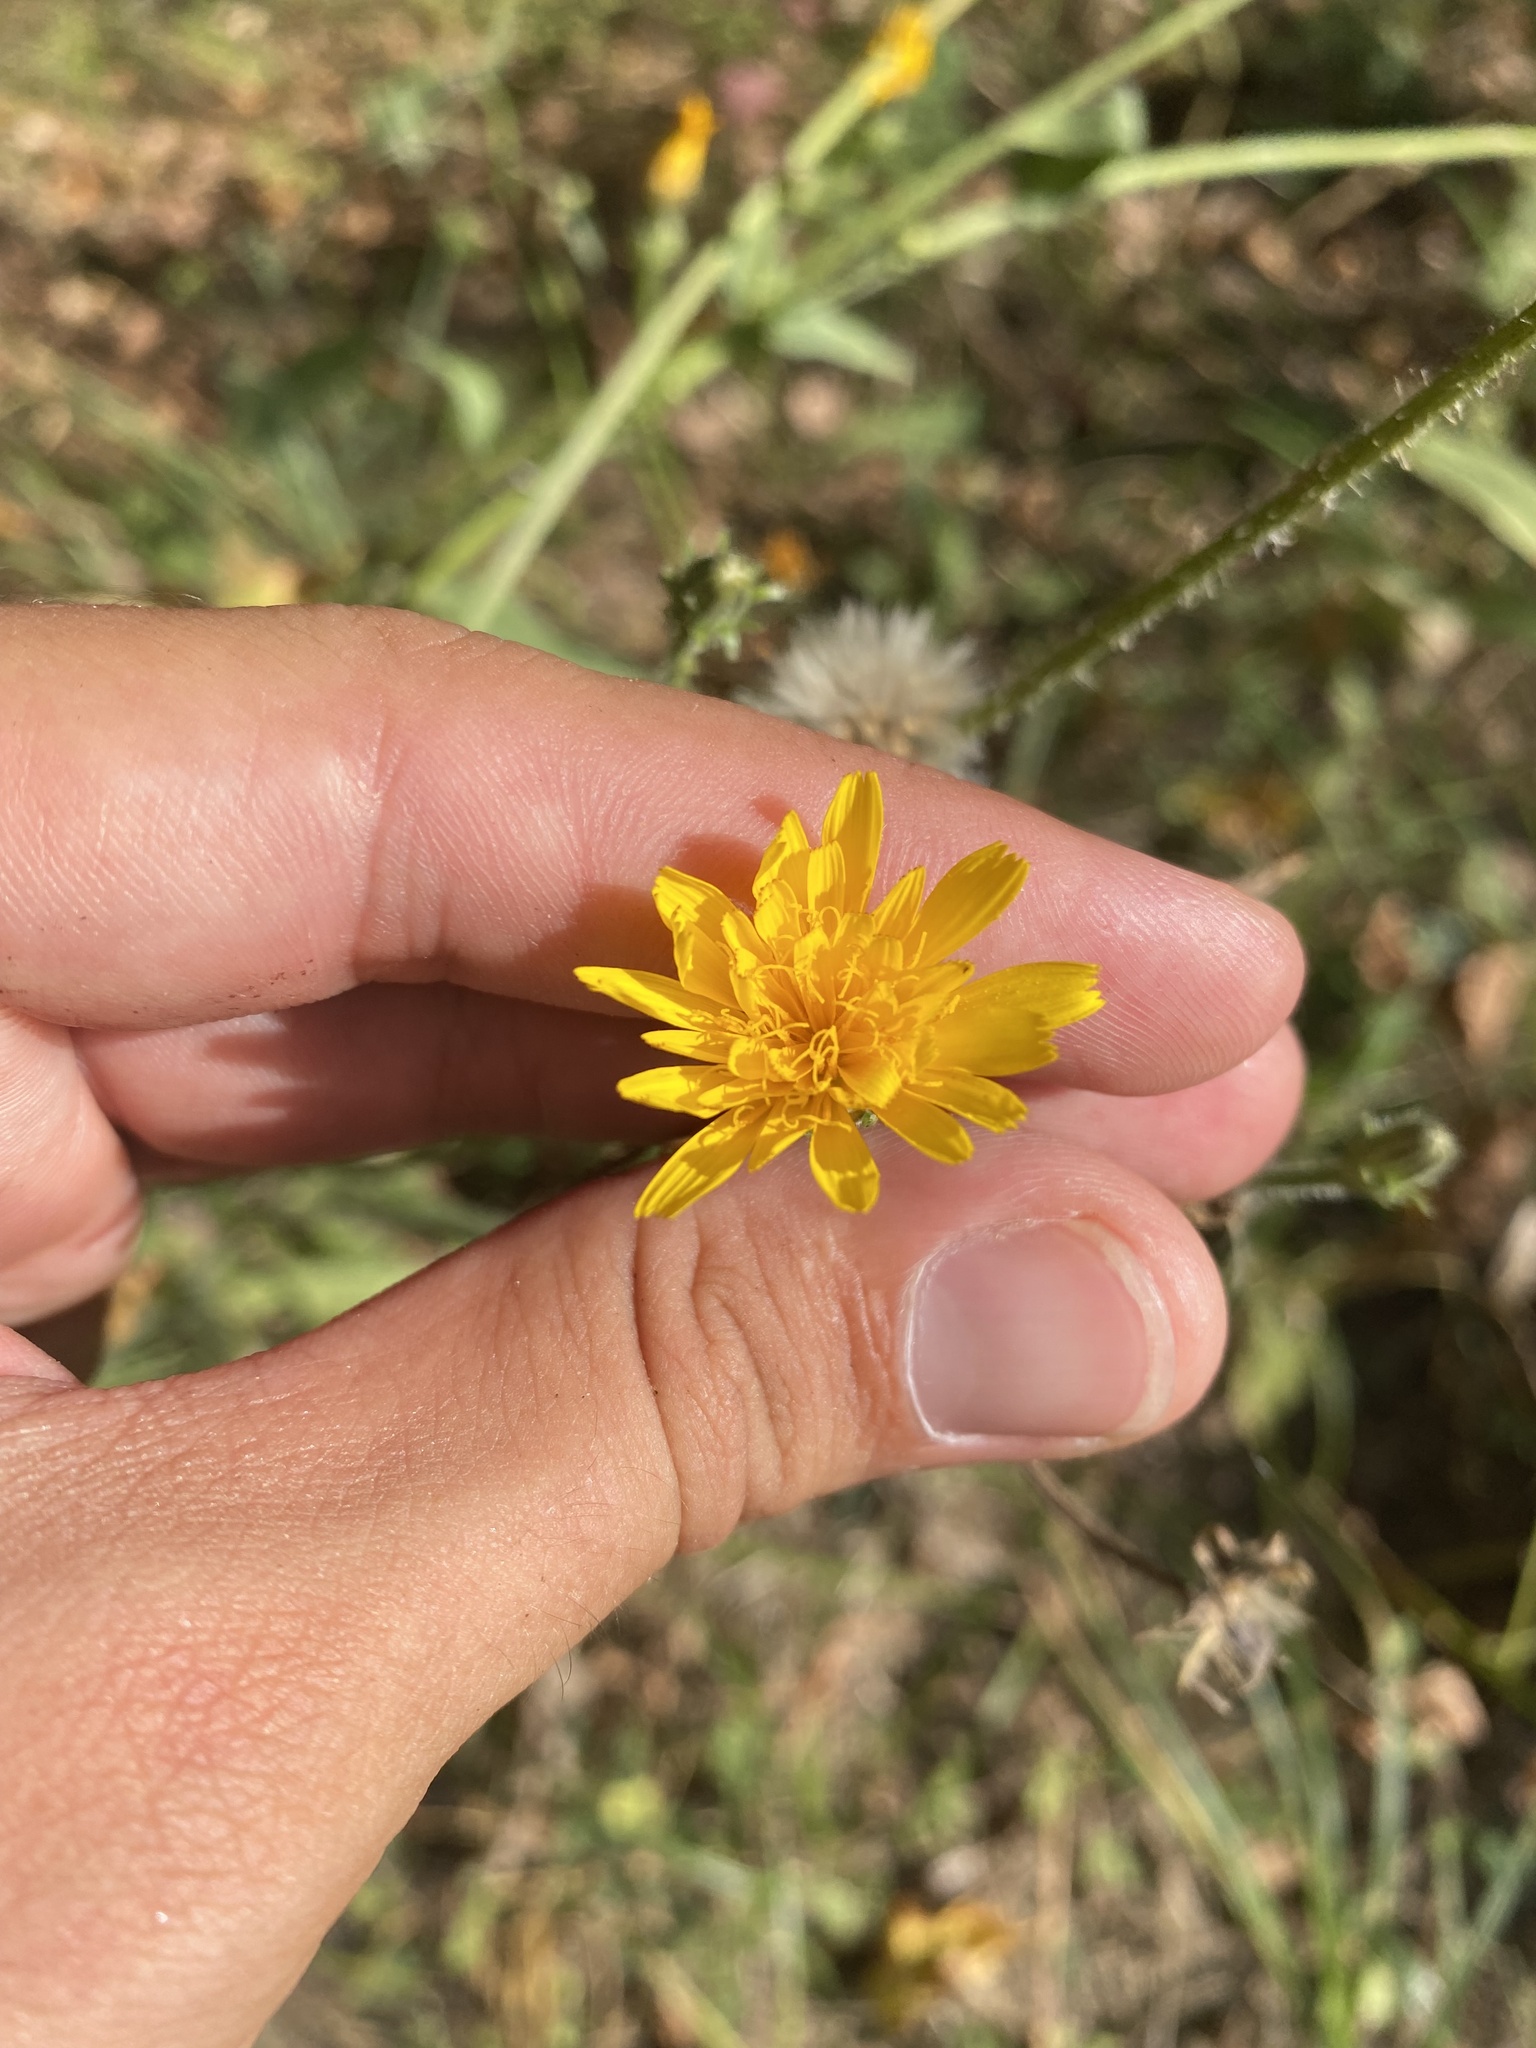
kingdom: Plantae
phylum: Tracheophyta
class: Magnoliopsida
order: Asterales
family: Asteraceae
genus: Picris
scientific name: Picris hieracioides
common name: Hawkweed oxtongue
